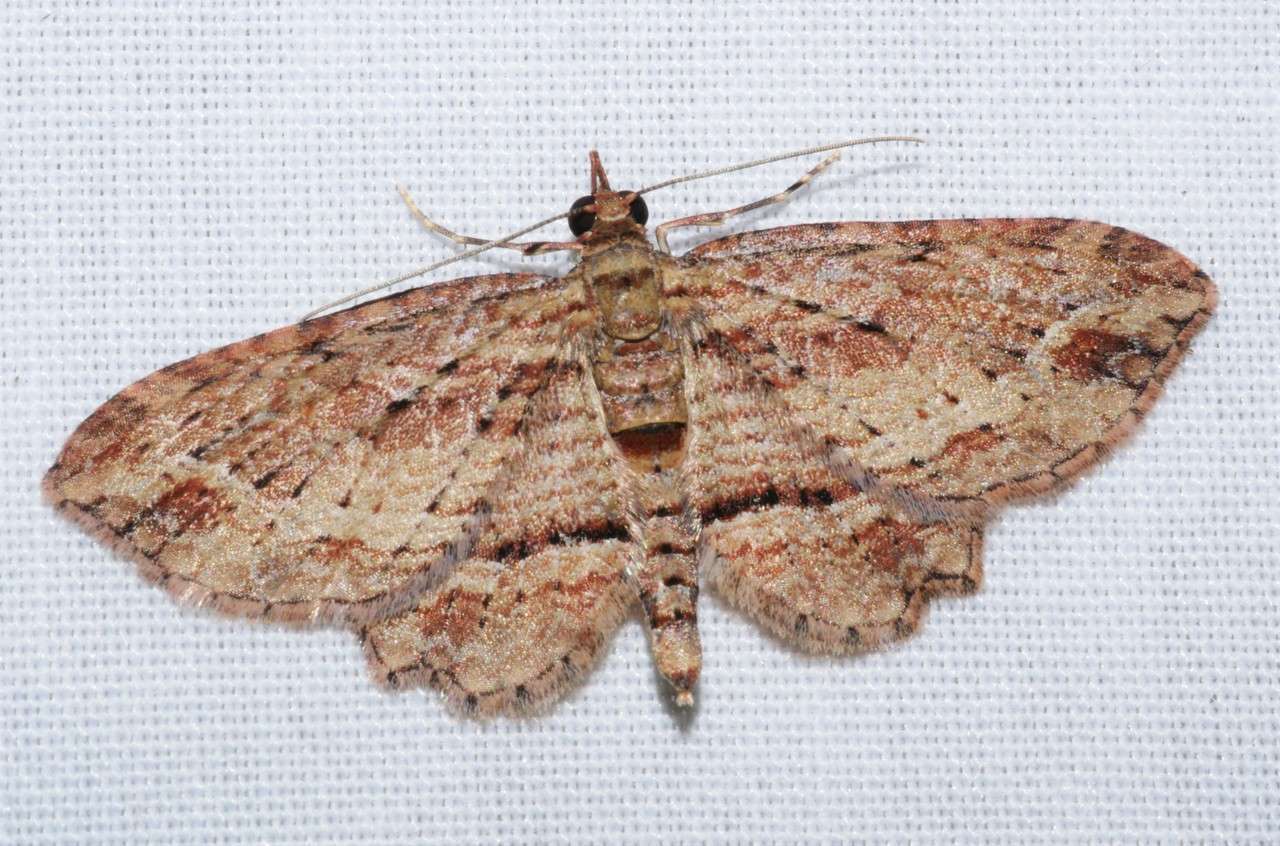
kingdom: Animalia
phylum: Arthropoda
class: Insecta
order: Lepidoptera
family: Geometridae
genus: Chloroclystis
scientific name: Chloroclystis filata
